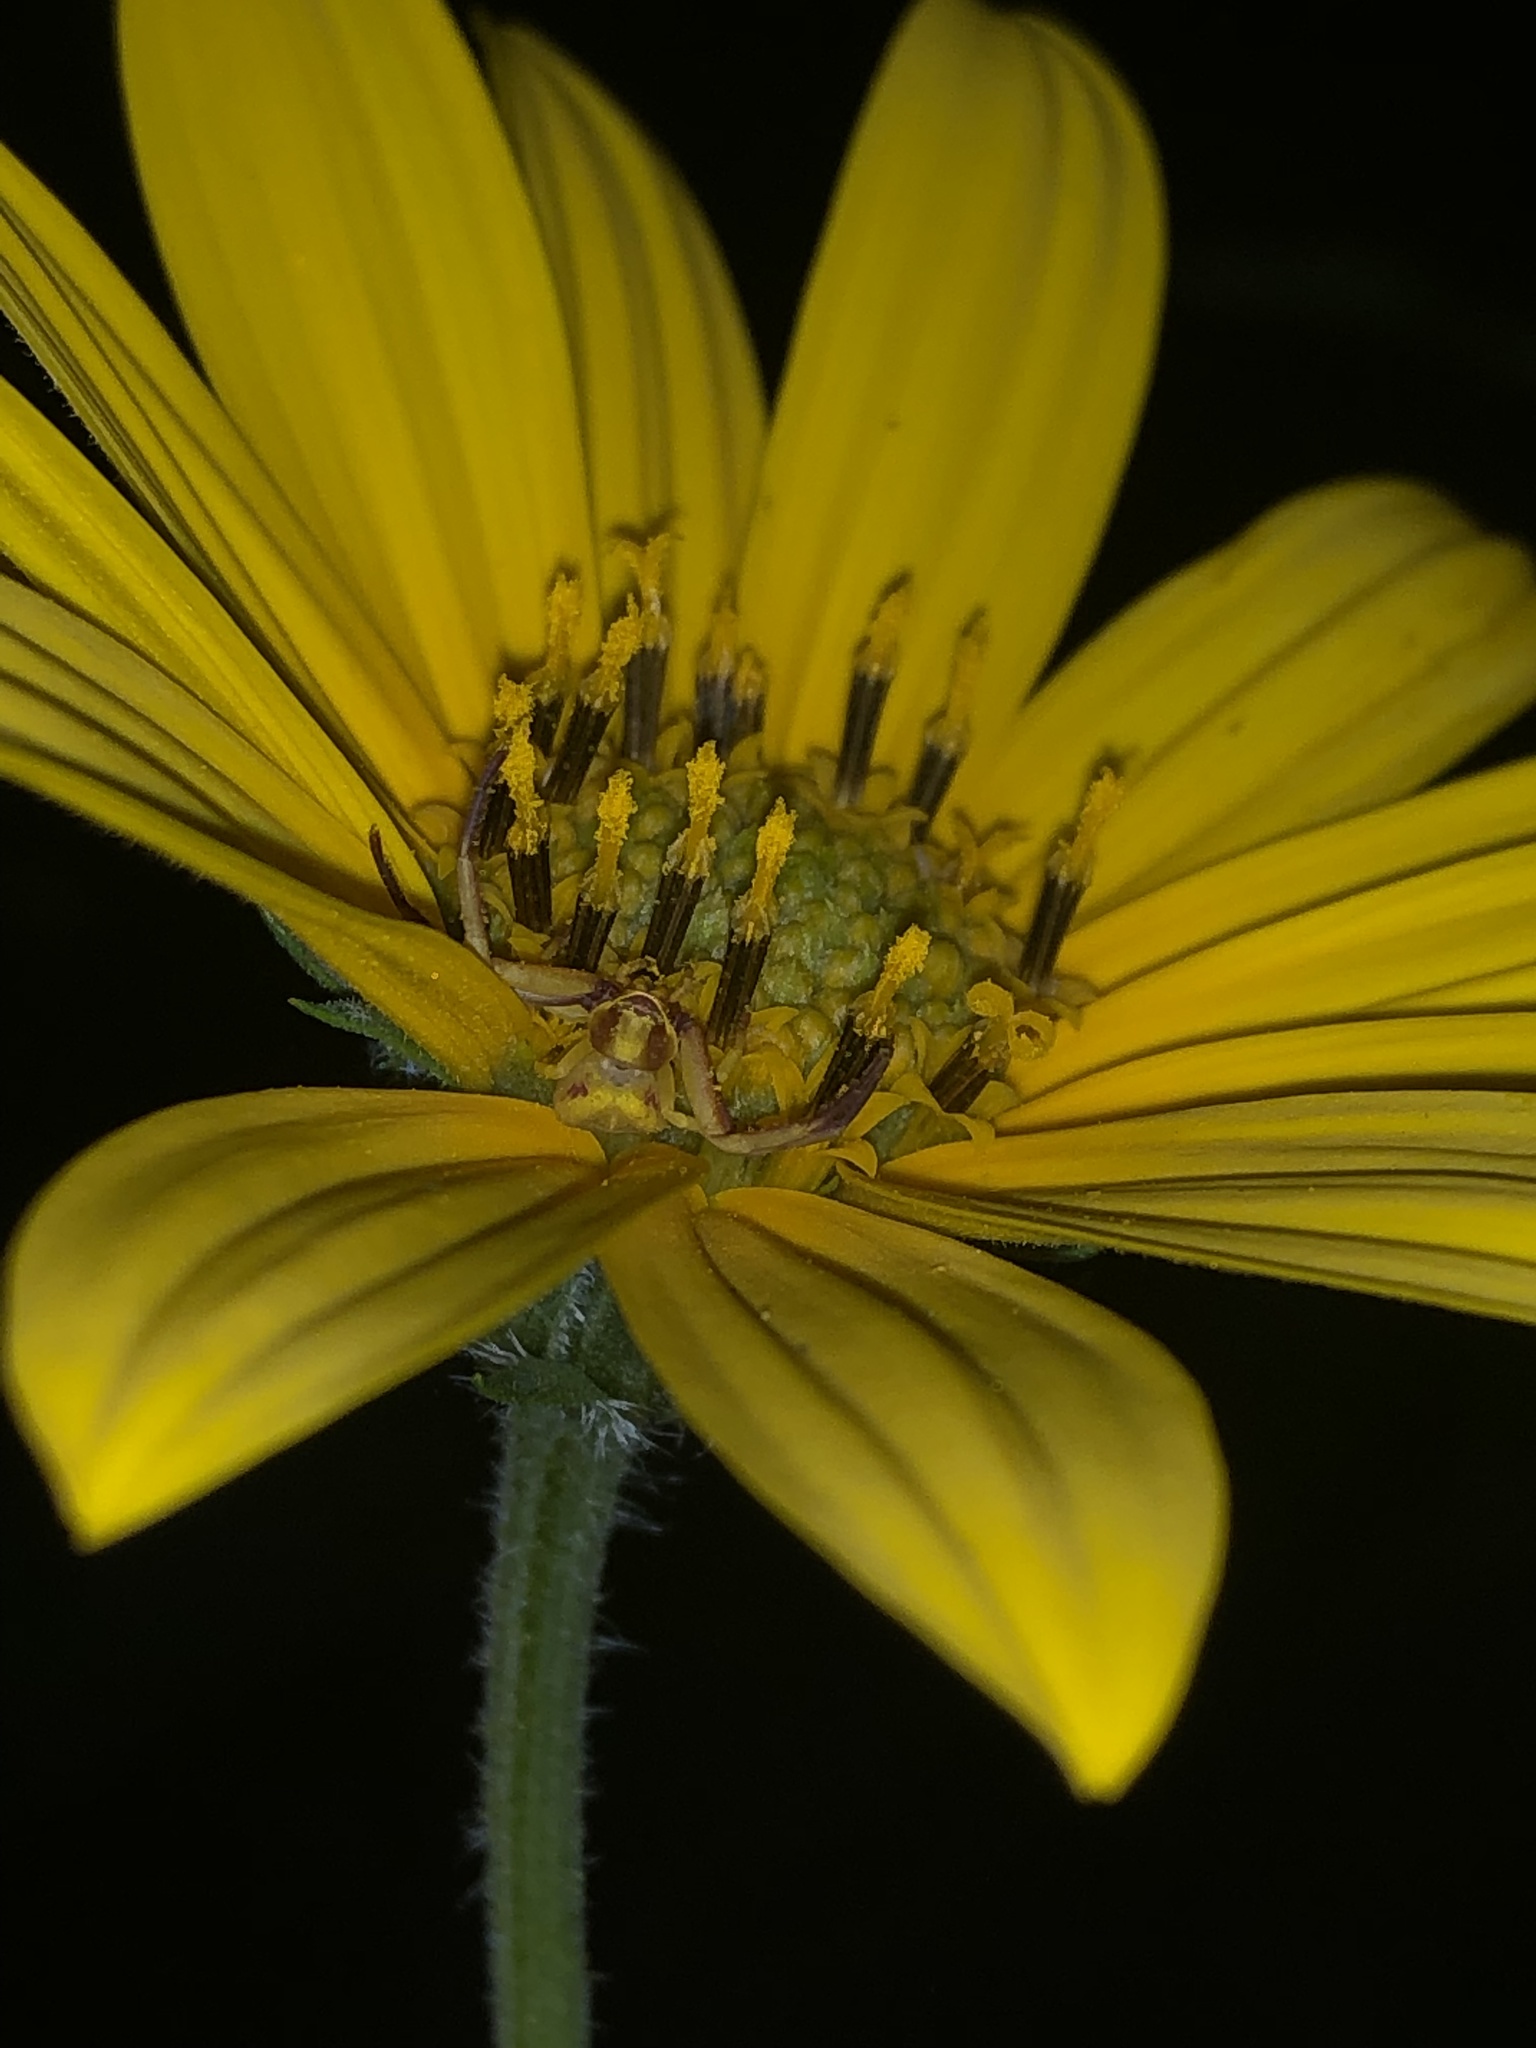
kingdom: Animalia
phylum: Arthropoda
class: Arachnida
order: Araneae
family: Thomisidae
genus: Misumenoides
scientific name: Misumenoides formosipes
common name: White-banded crab spider
